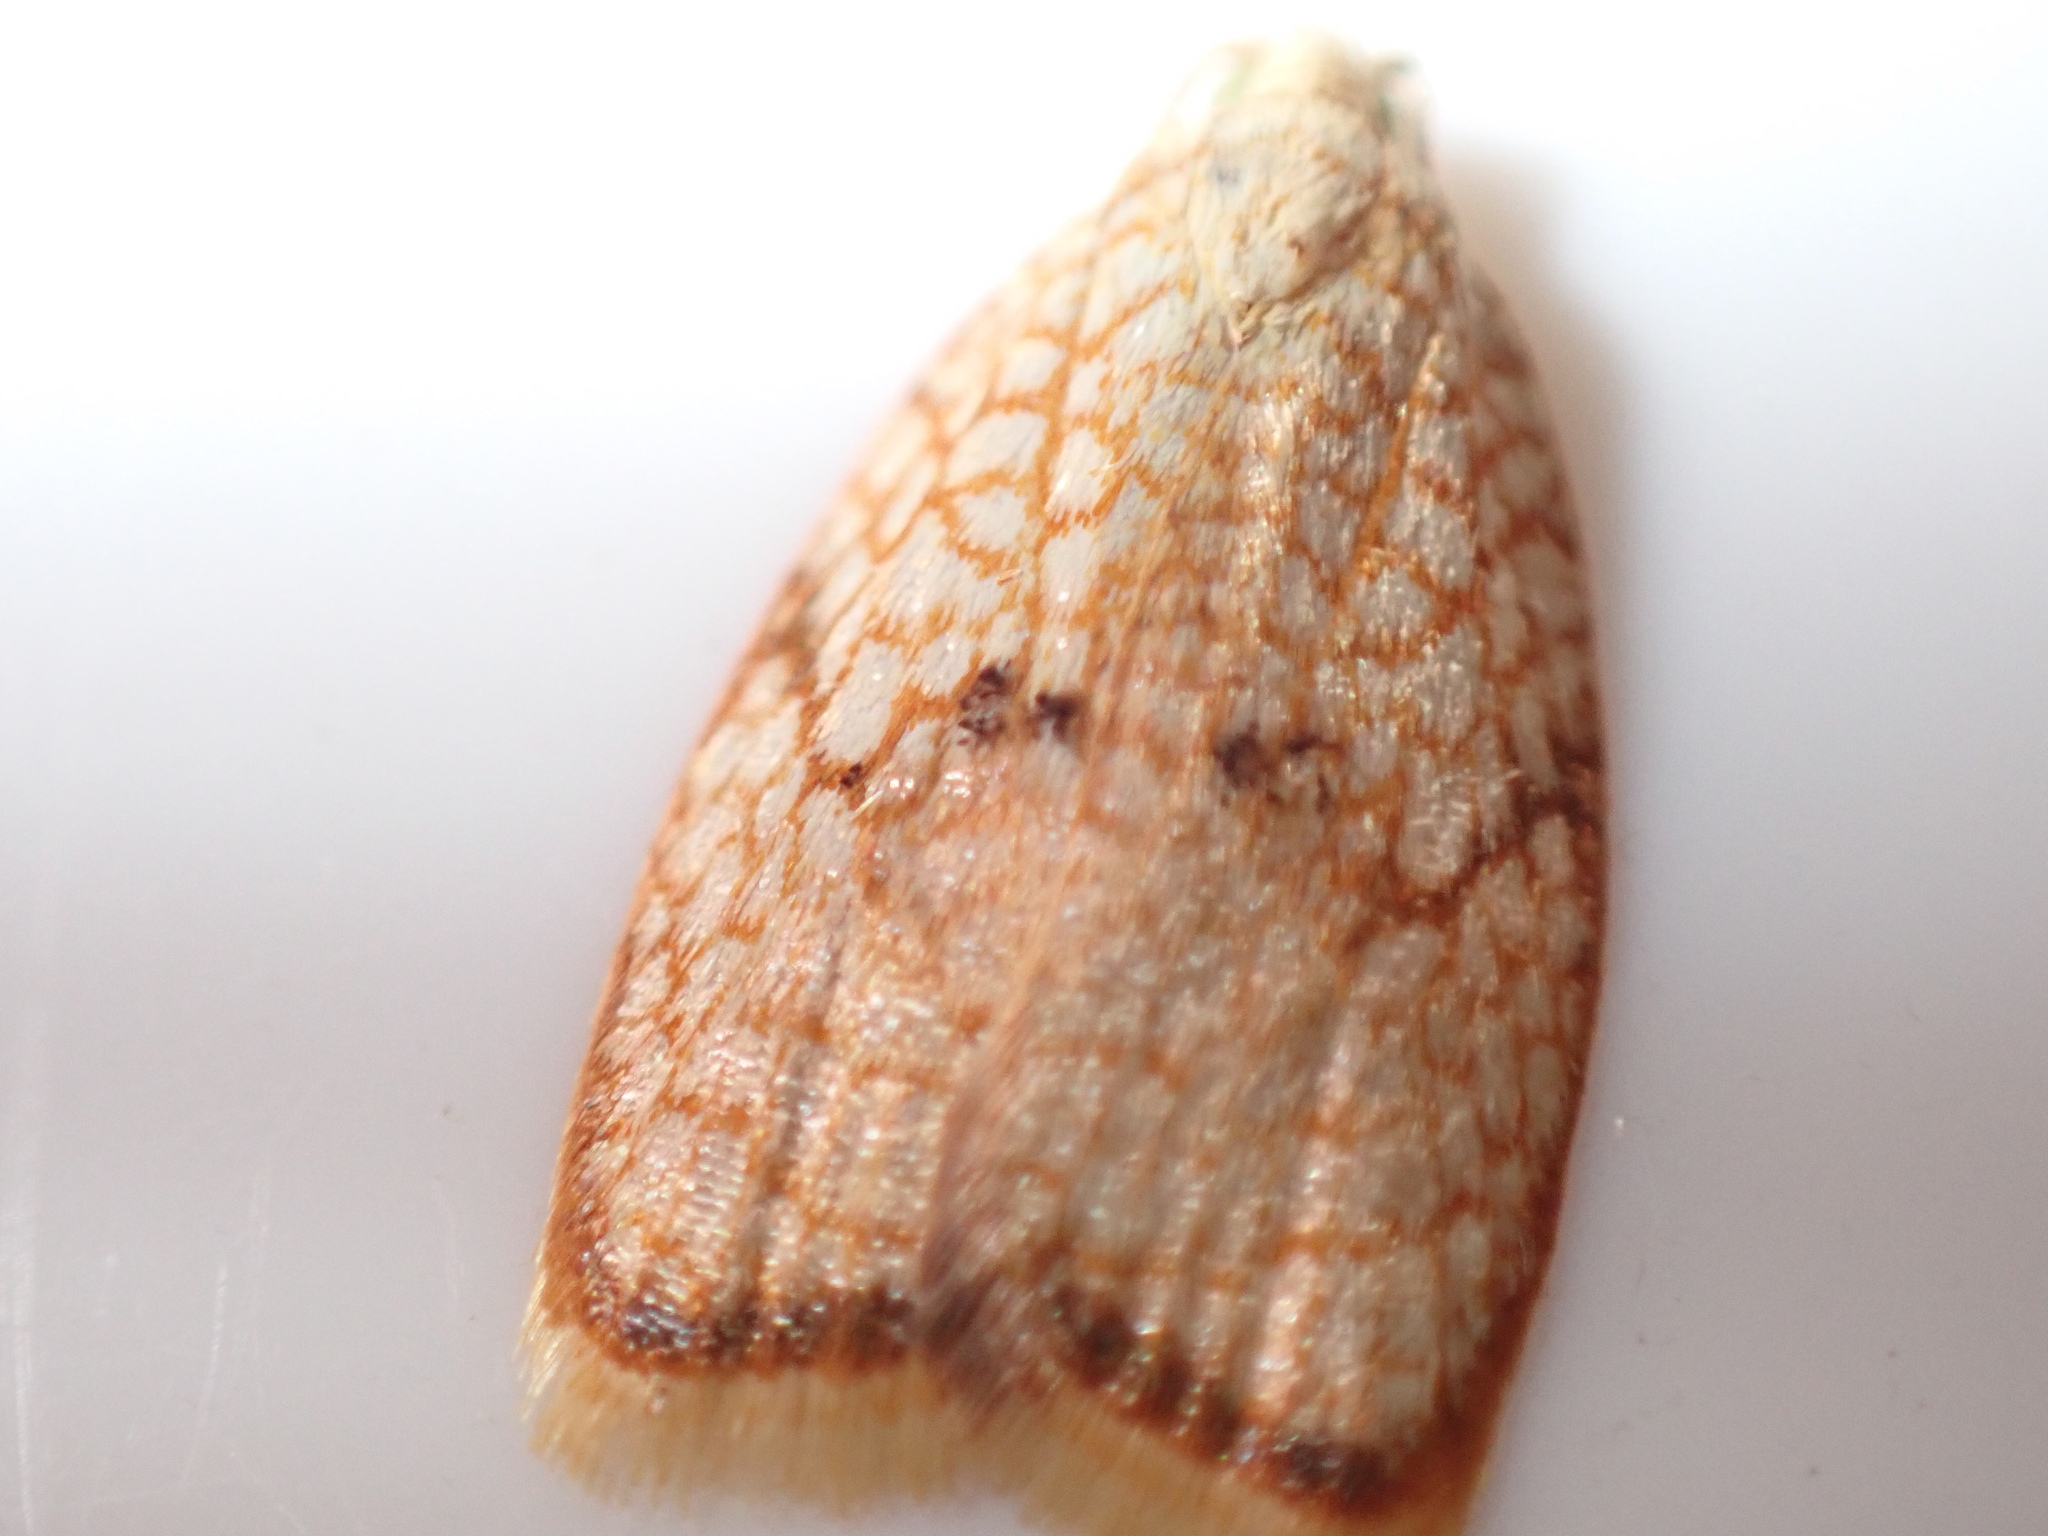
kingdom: Animalia
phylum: Arthropoda
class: Insecta
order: Lepidoptera
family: Tortricidae
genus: Acleris
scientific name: Acleris forsskaleana
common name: Maple button
